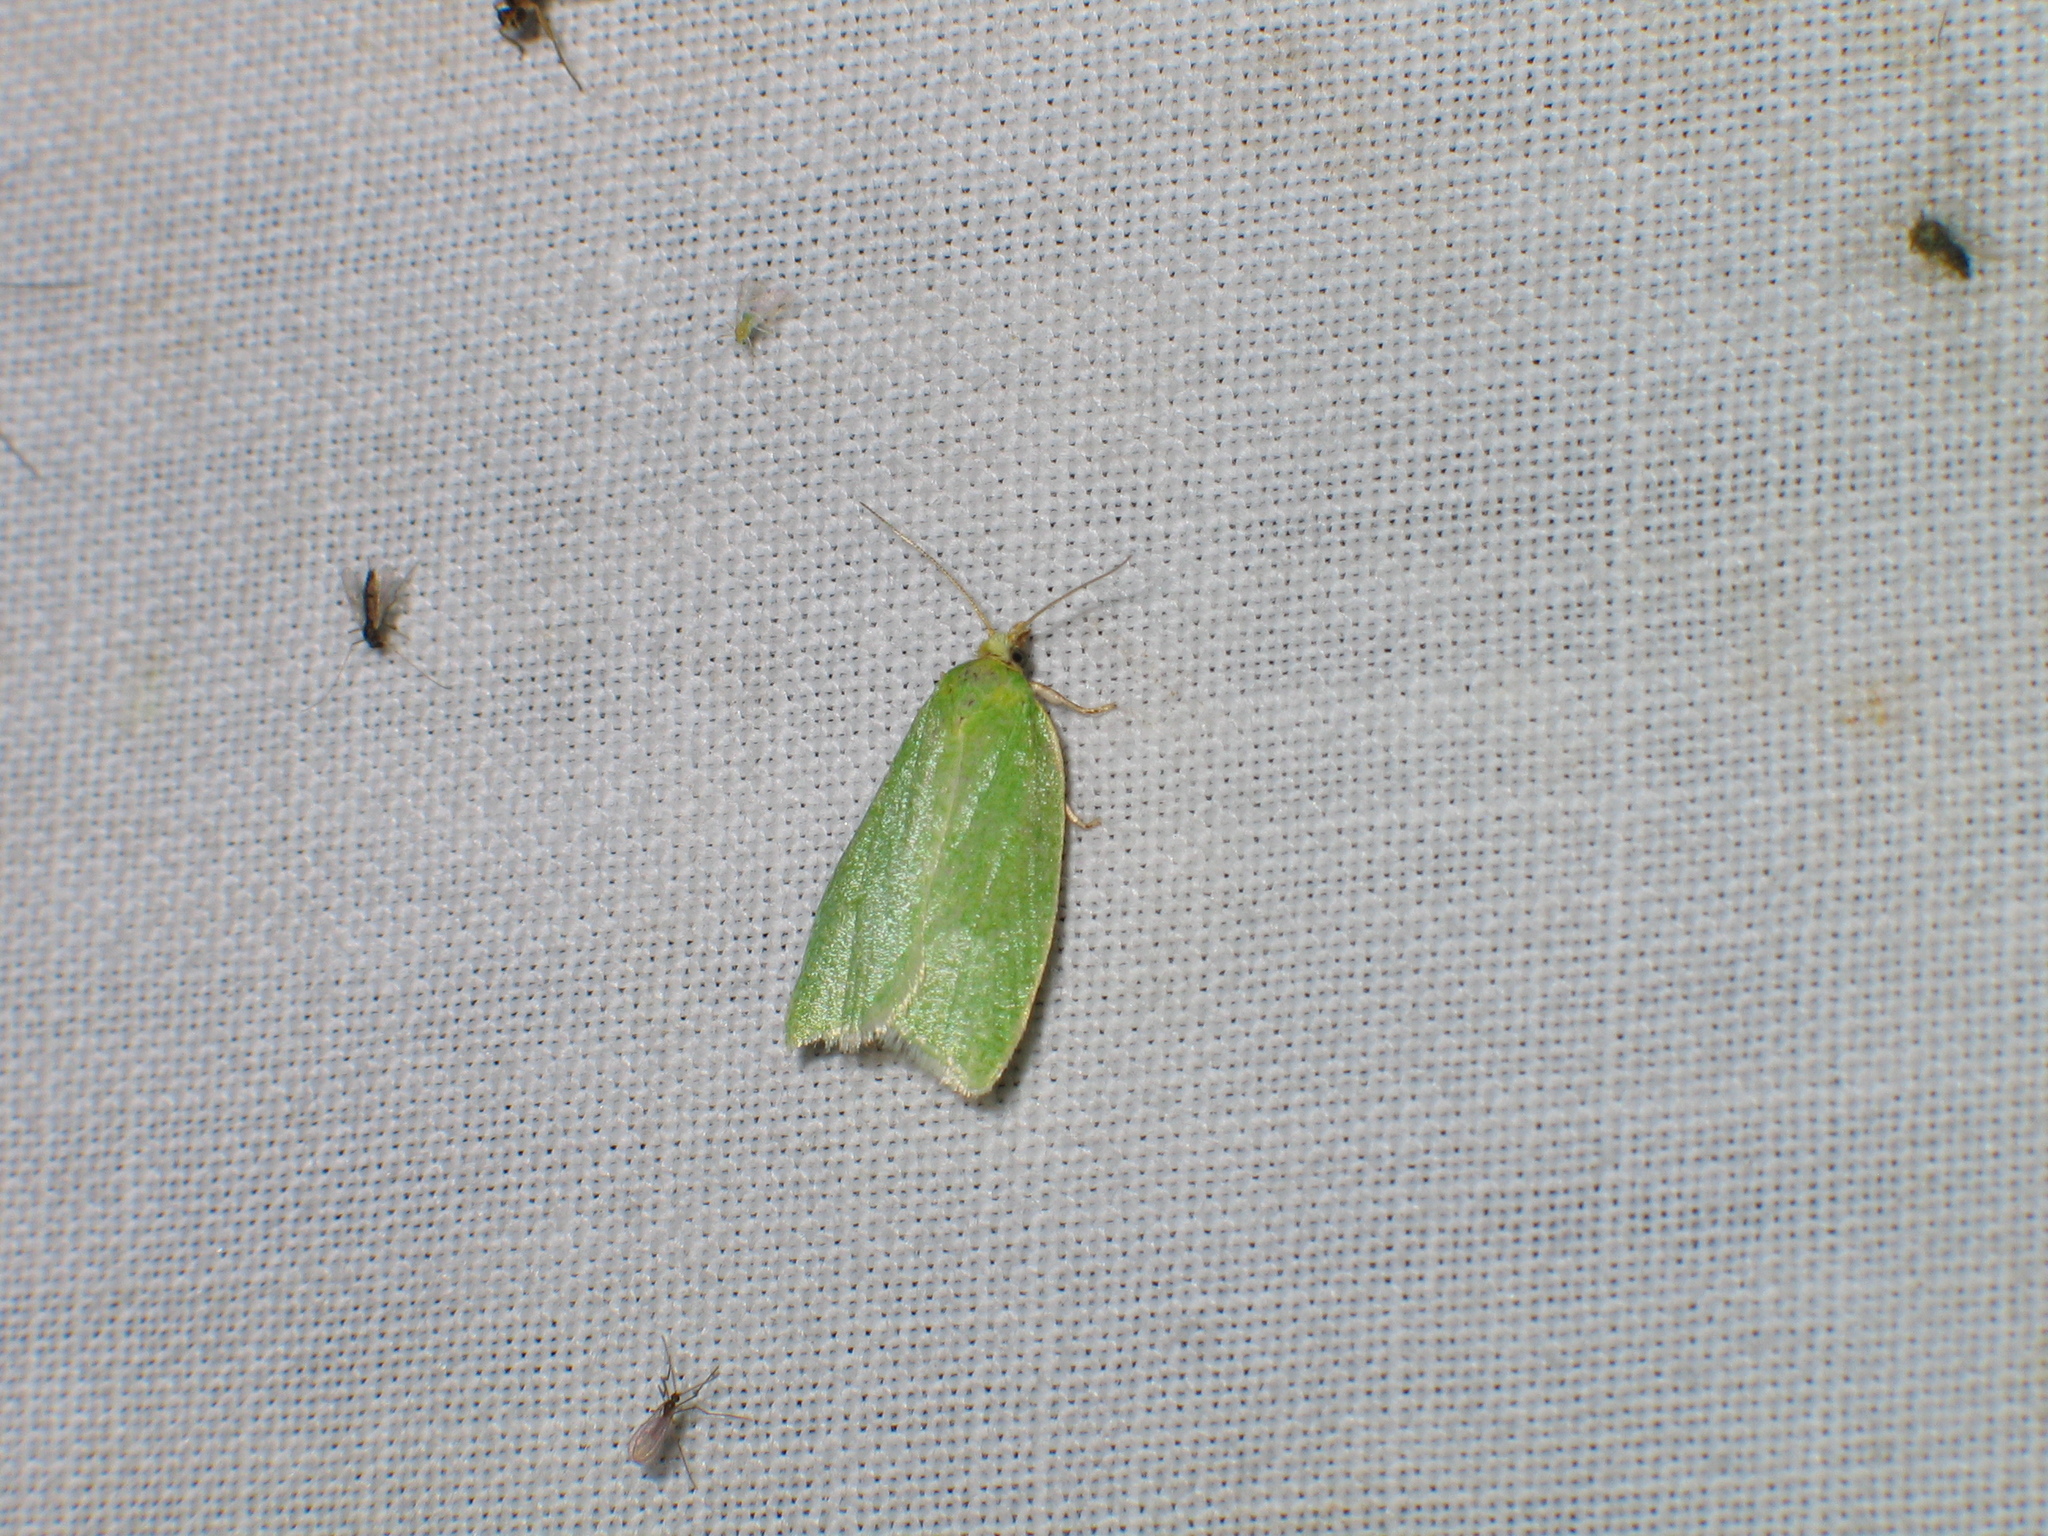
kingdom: Animalia
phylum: Arthropoda
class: Insecta
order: Lepidoptera
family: Tortricidae
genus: Tortrix
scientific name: Tortrix viridana
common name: Green oak tortrix
